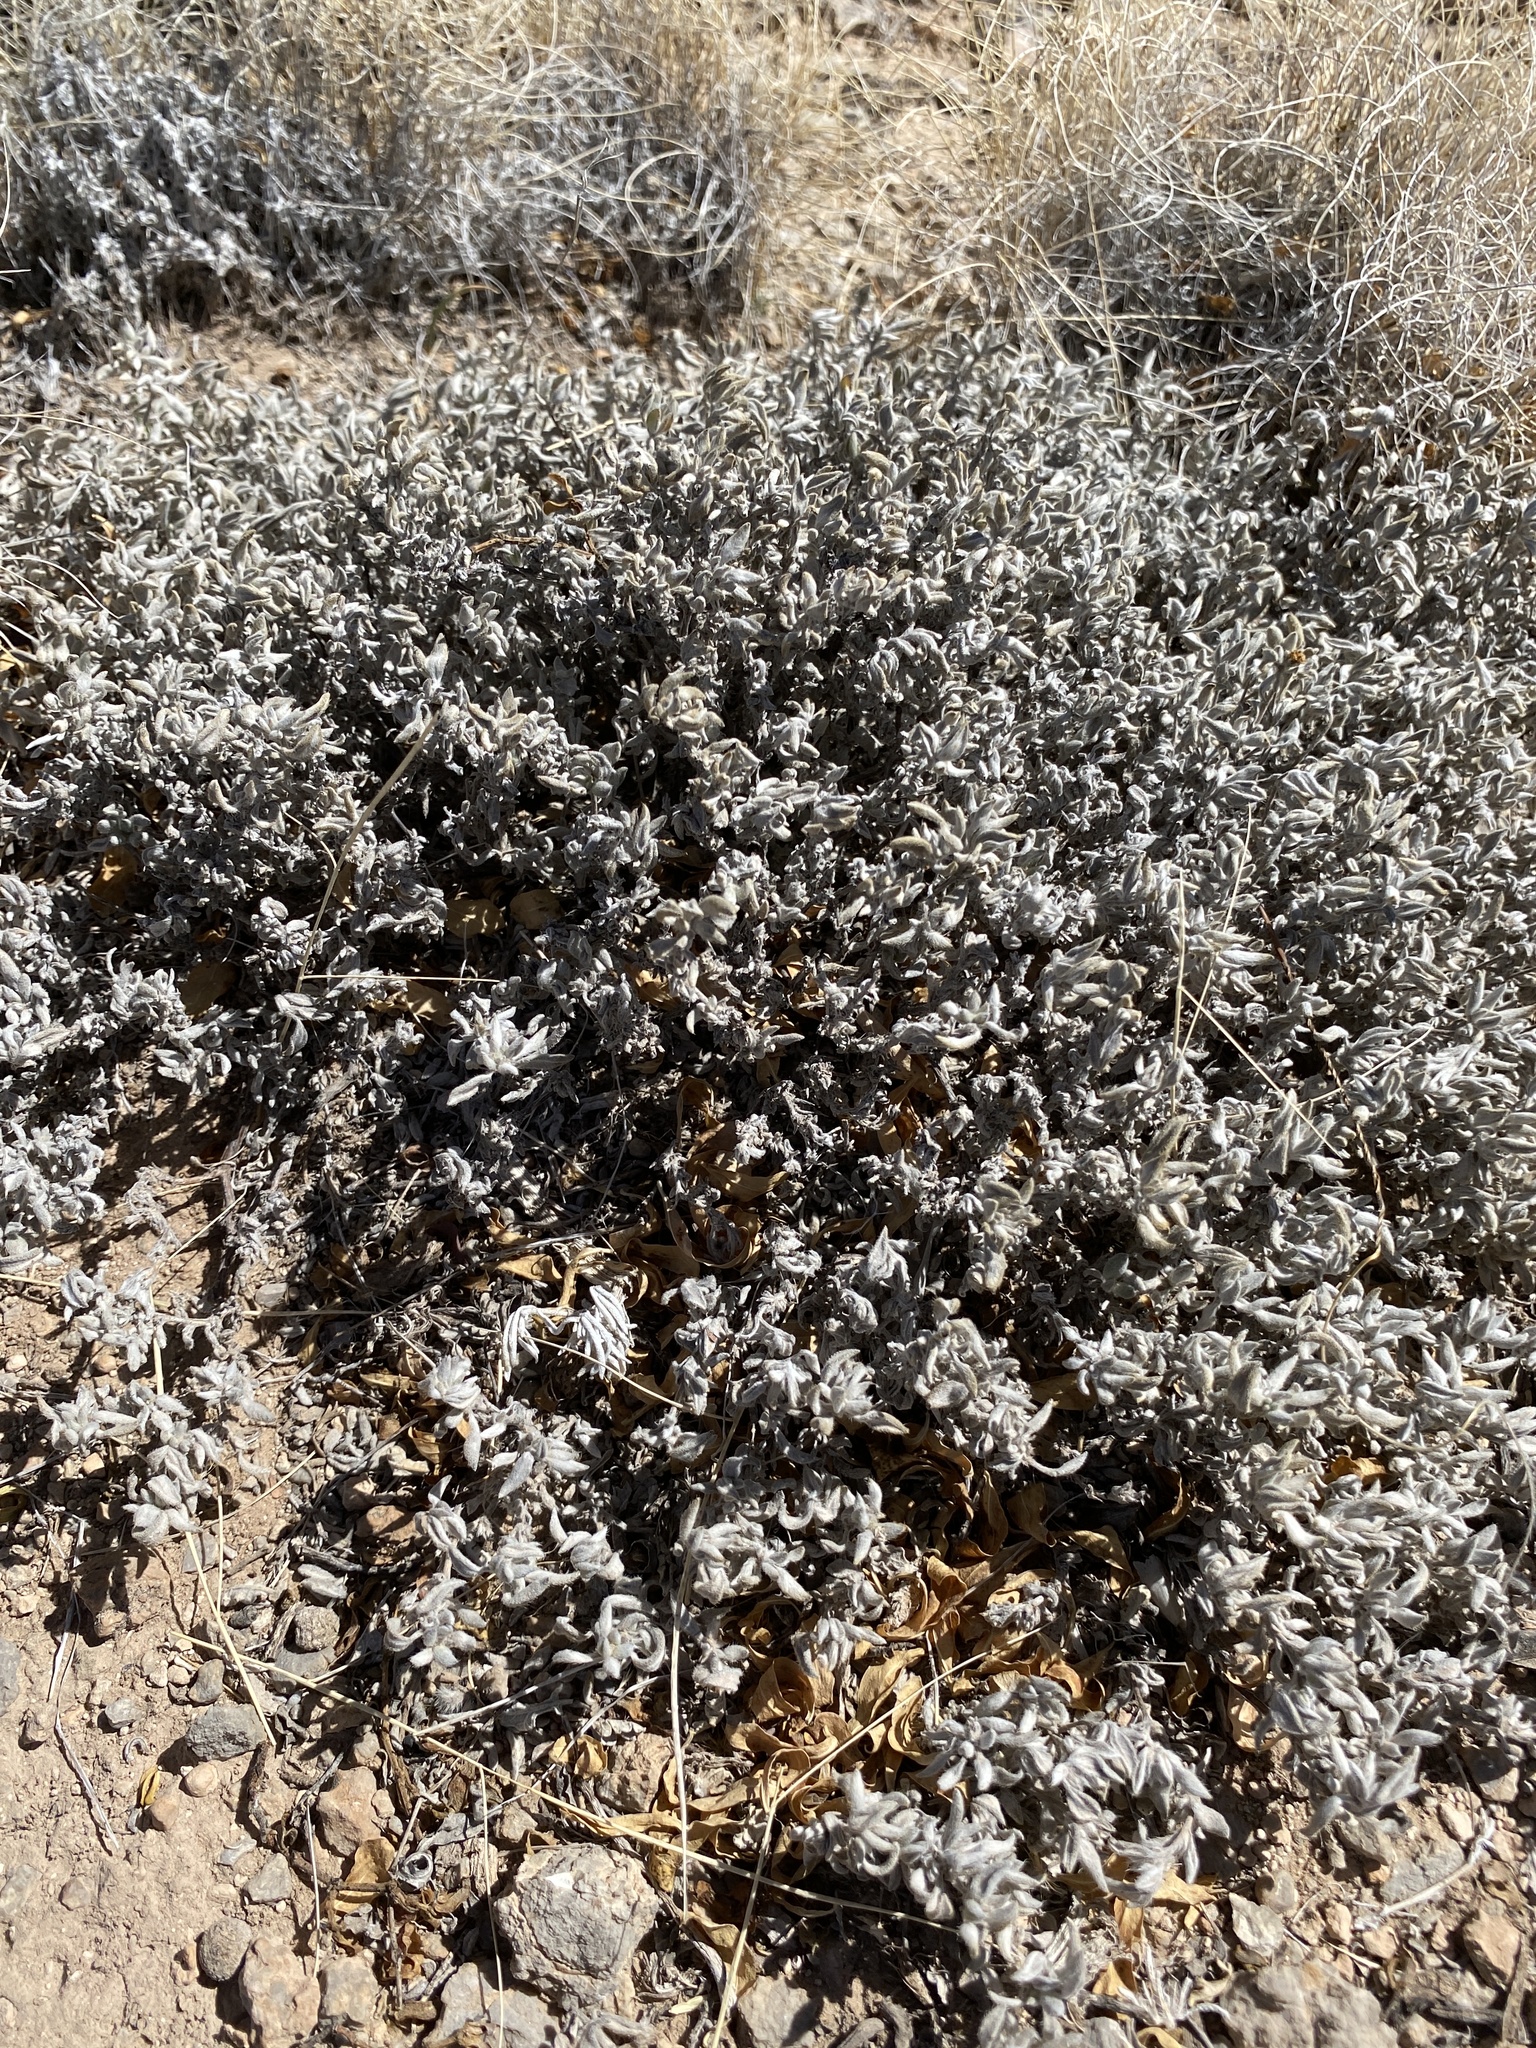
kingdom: Plantae
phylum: Tracheophyta
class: Magnoliopsida
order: Boraginales
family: Ehretiaceae
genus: Tiquilia
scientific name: Tiquilia canescens
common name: Hairy tiquilia
